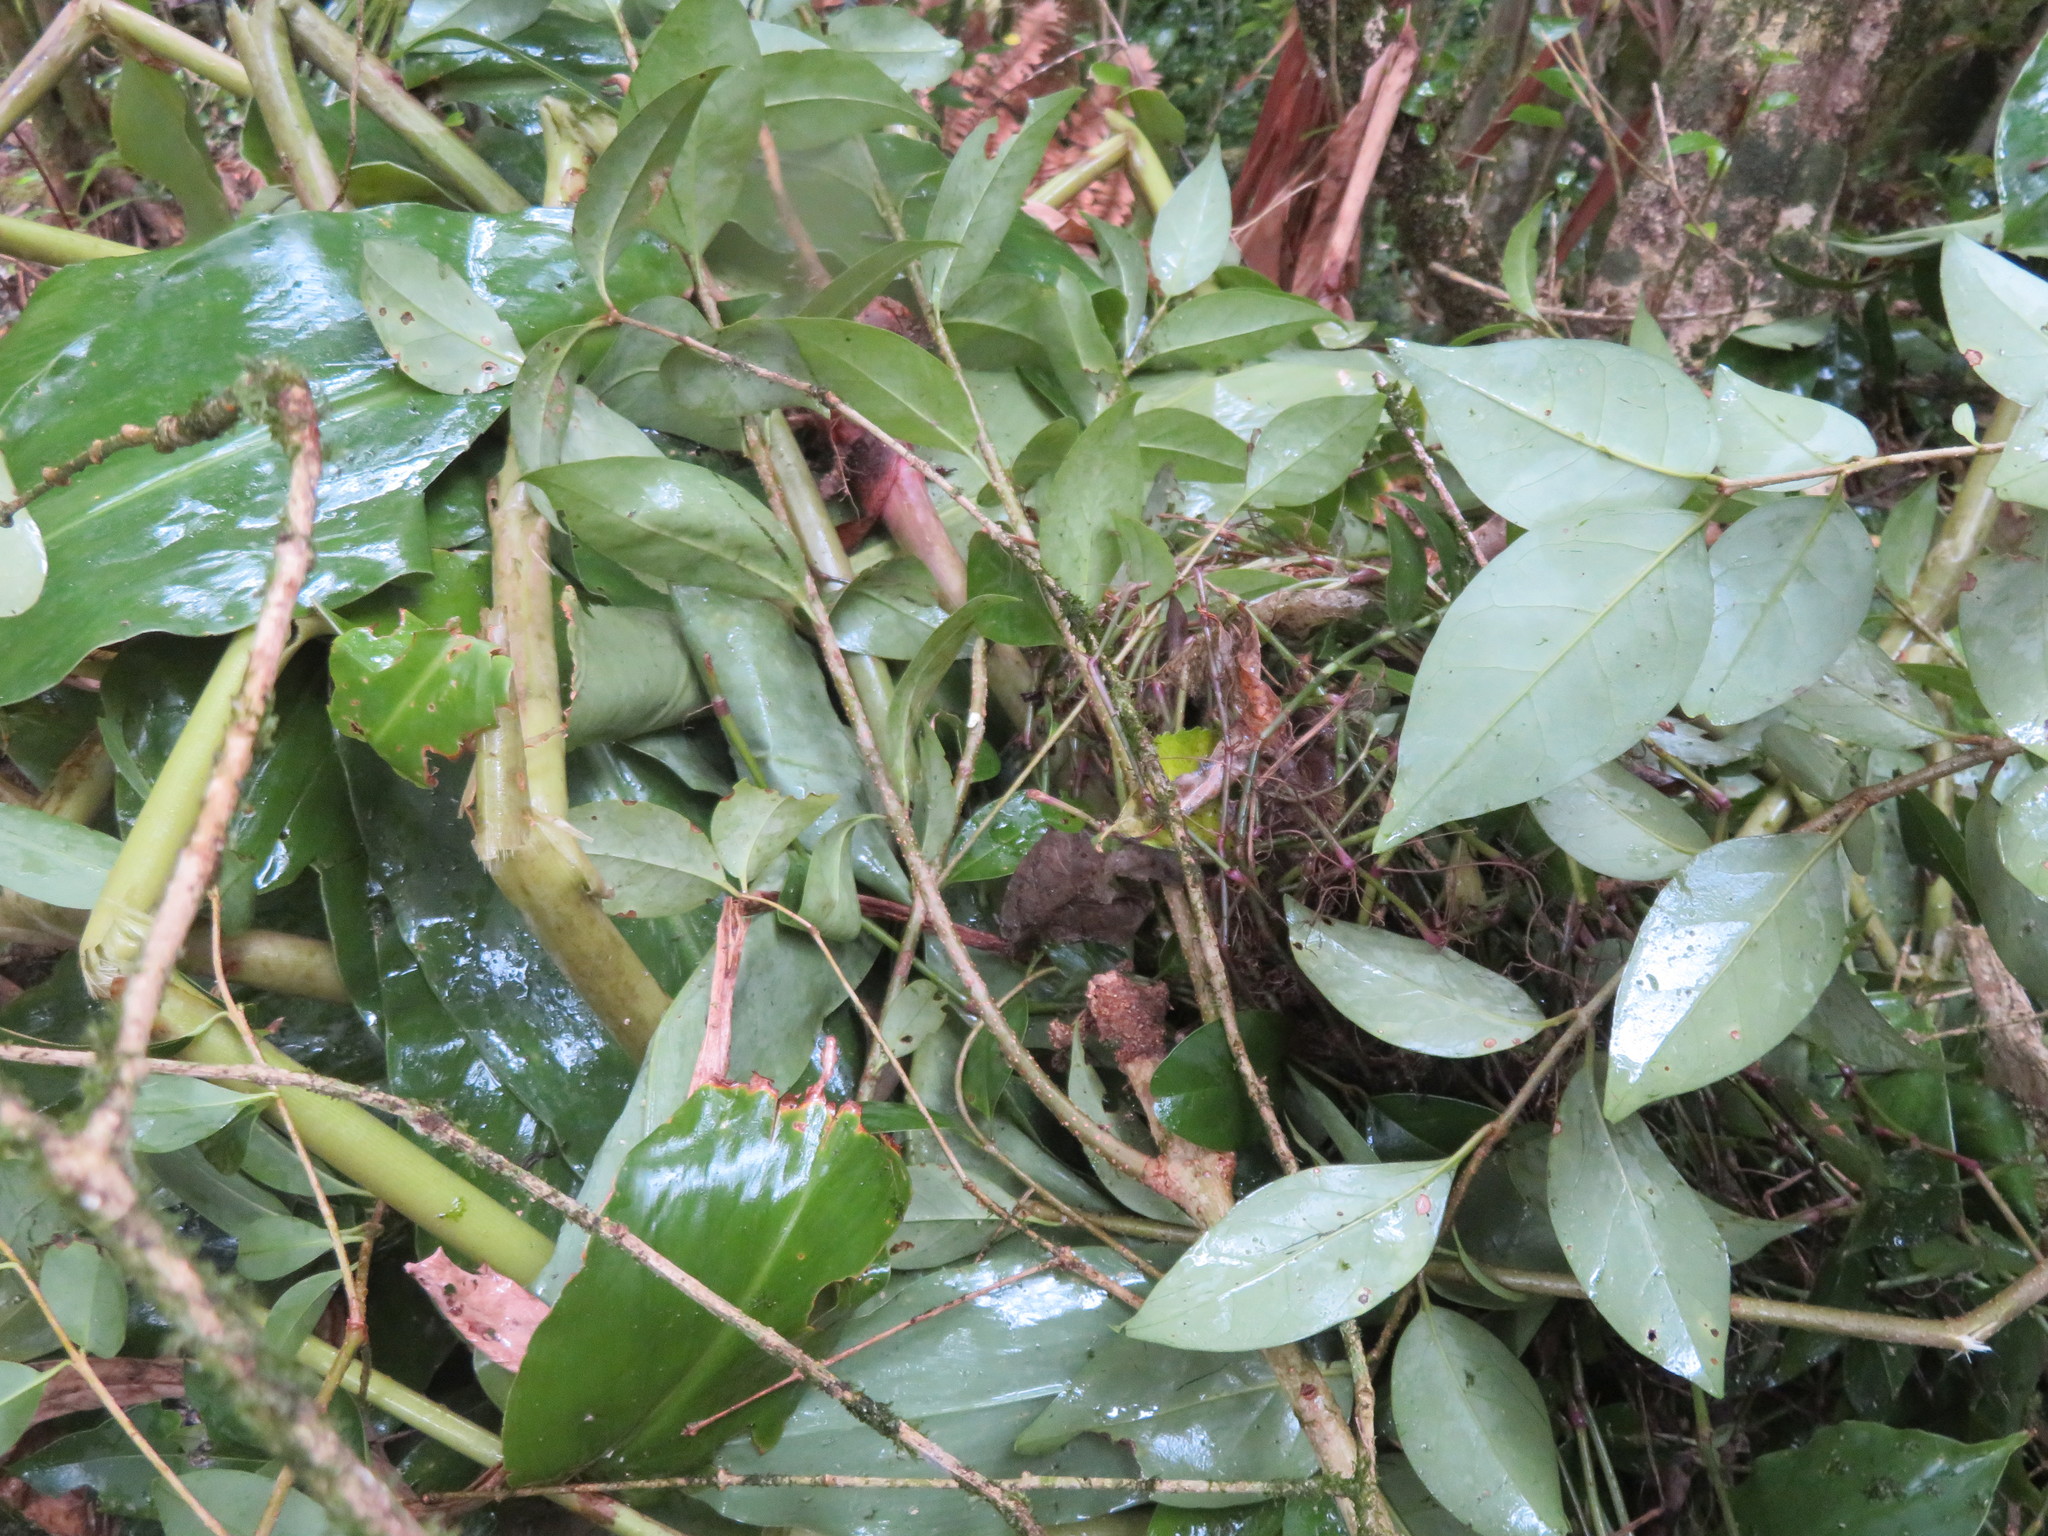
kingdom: Plantae
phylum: Tracheophyta
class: Liliopsida
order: Zingiberales
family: Zingiberaceae
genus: Hedychium
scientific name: Hedychium gardnerianum
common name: Himalayan ginger
